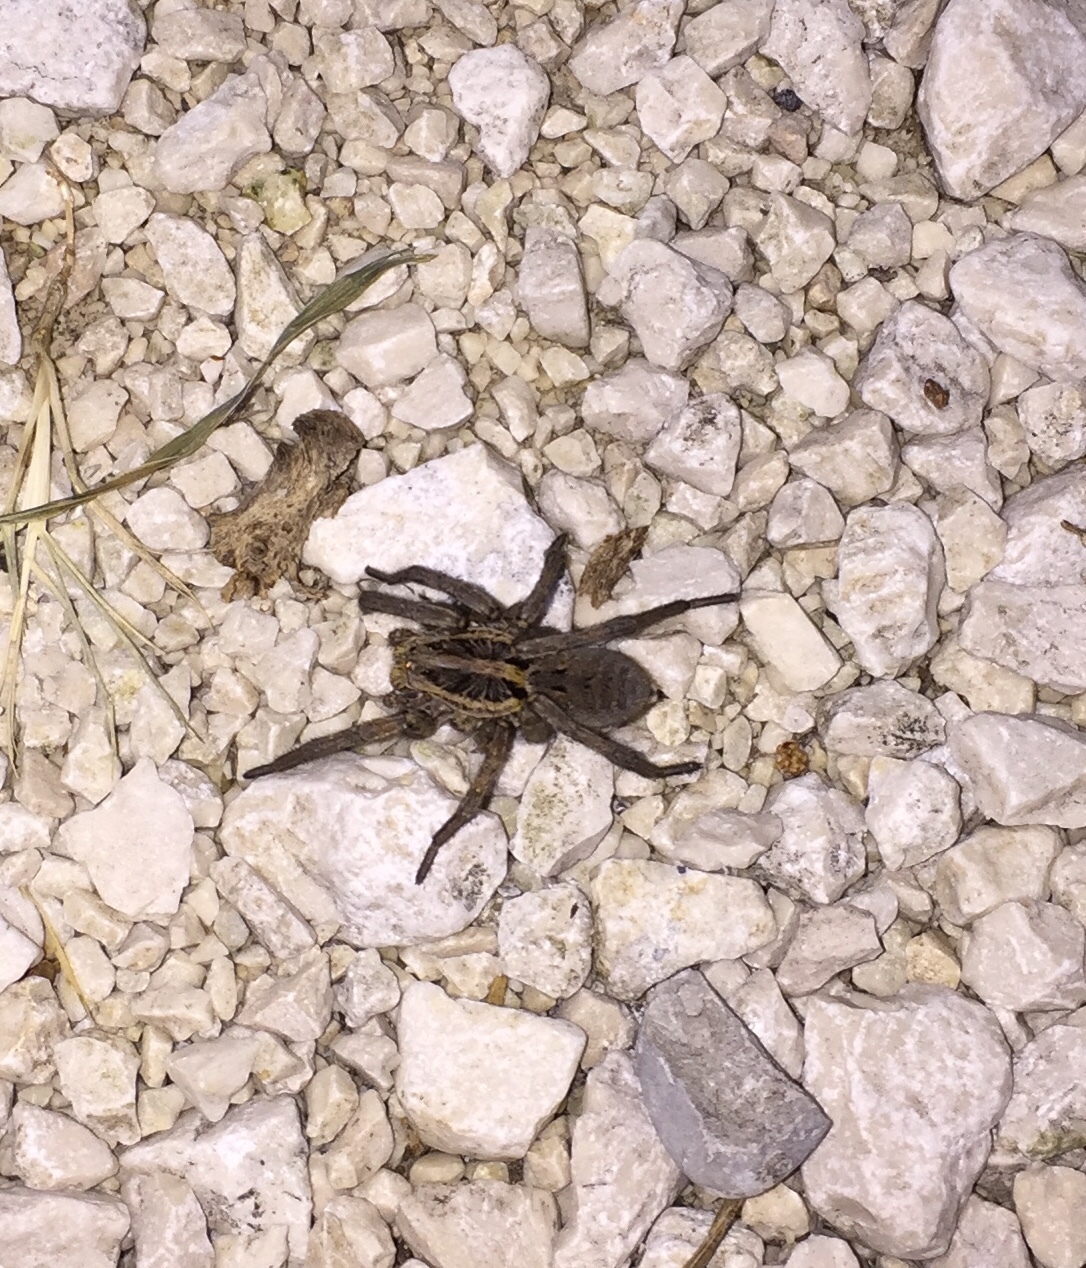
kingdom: Animalia
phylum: Arthropoda
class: Arachnida
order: Araneae
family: Lycosidae
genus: Hogna
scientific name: Hogna radiata
